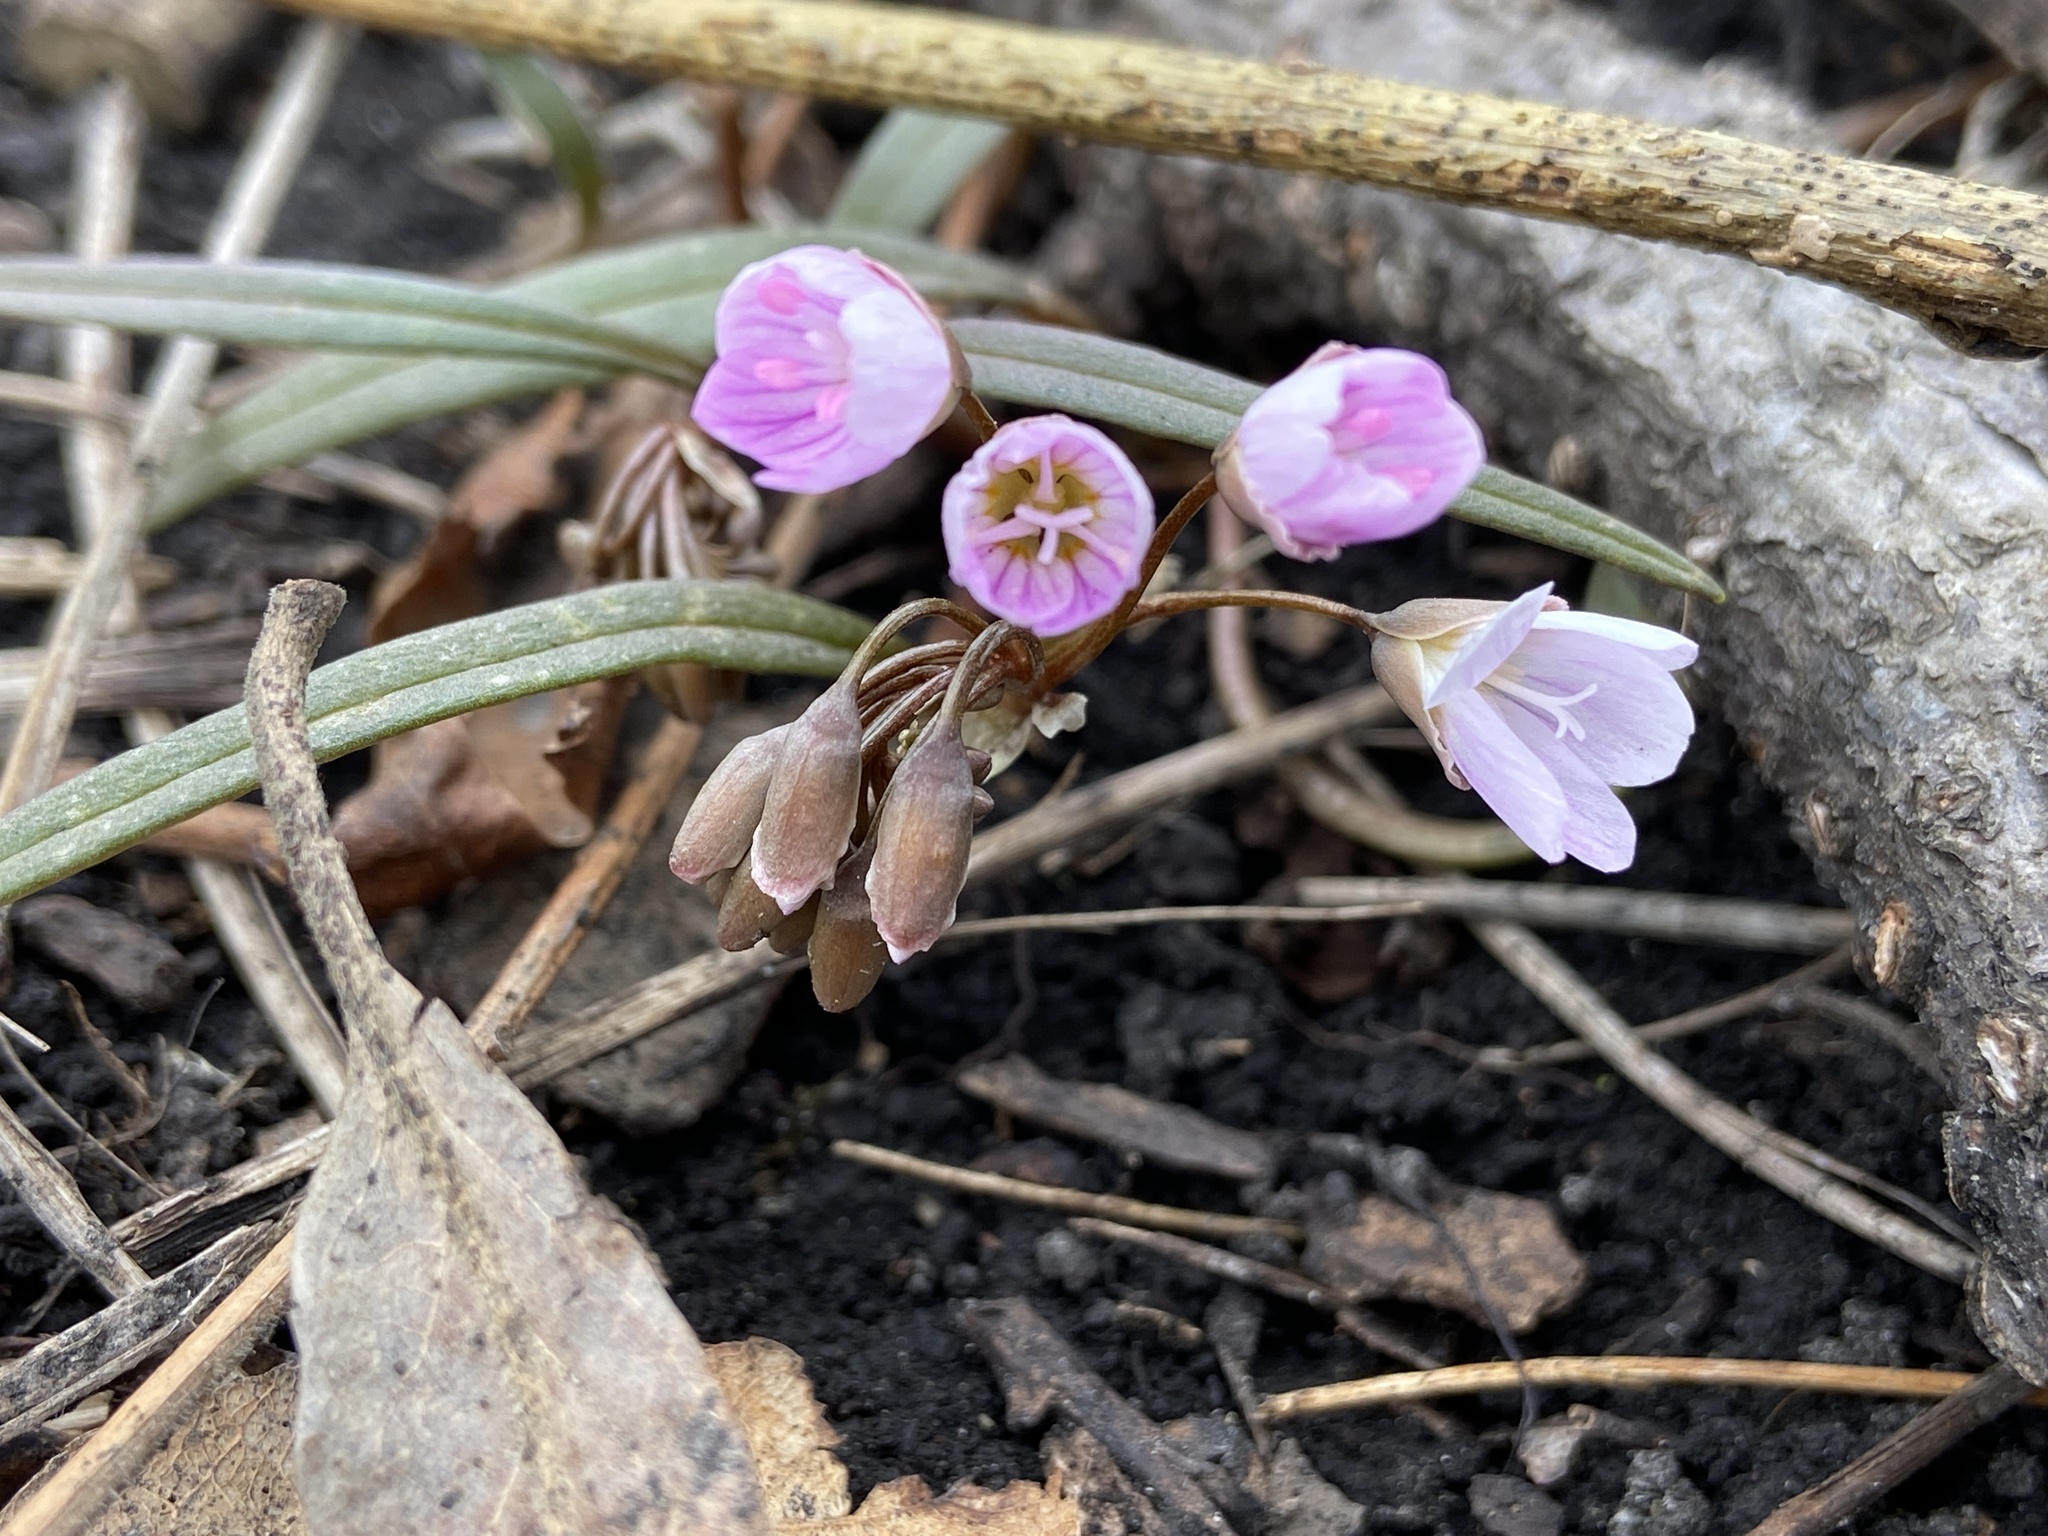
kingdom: Plantae
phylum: Tracheophyta
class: Magnoliopsida
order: Caryophyllales
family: Montiaceae
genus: Claytonia
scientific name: Claytonia virginica
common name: Virginia springbeauty
